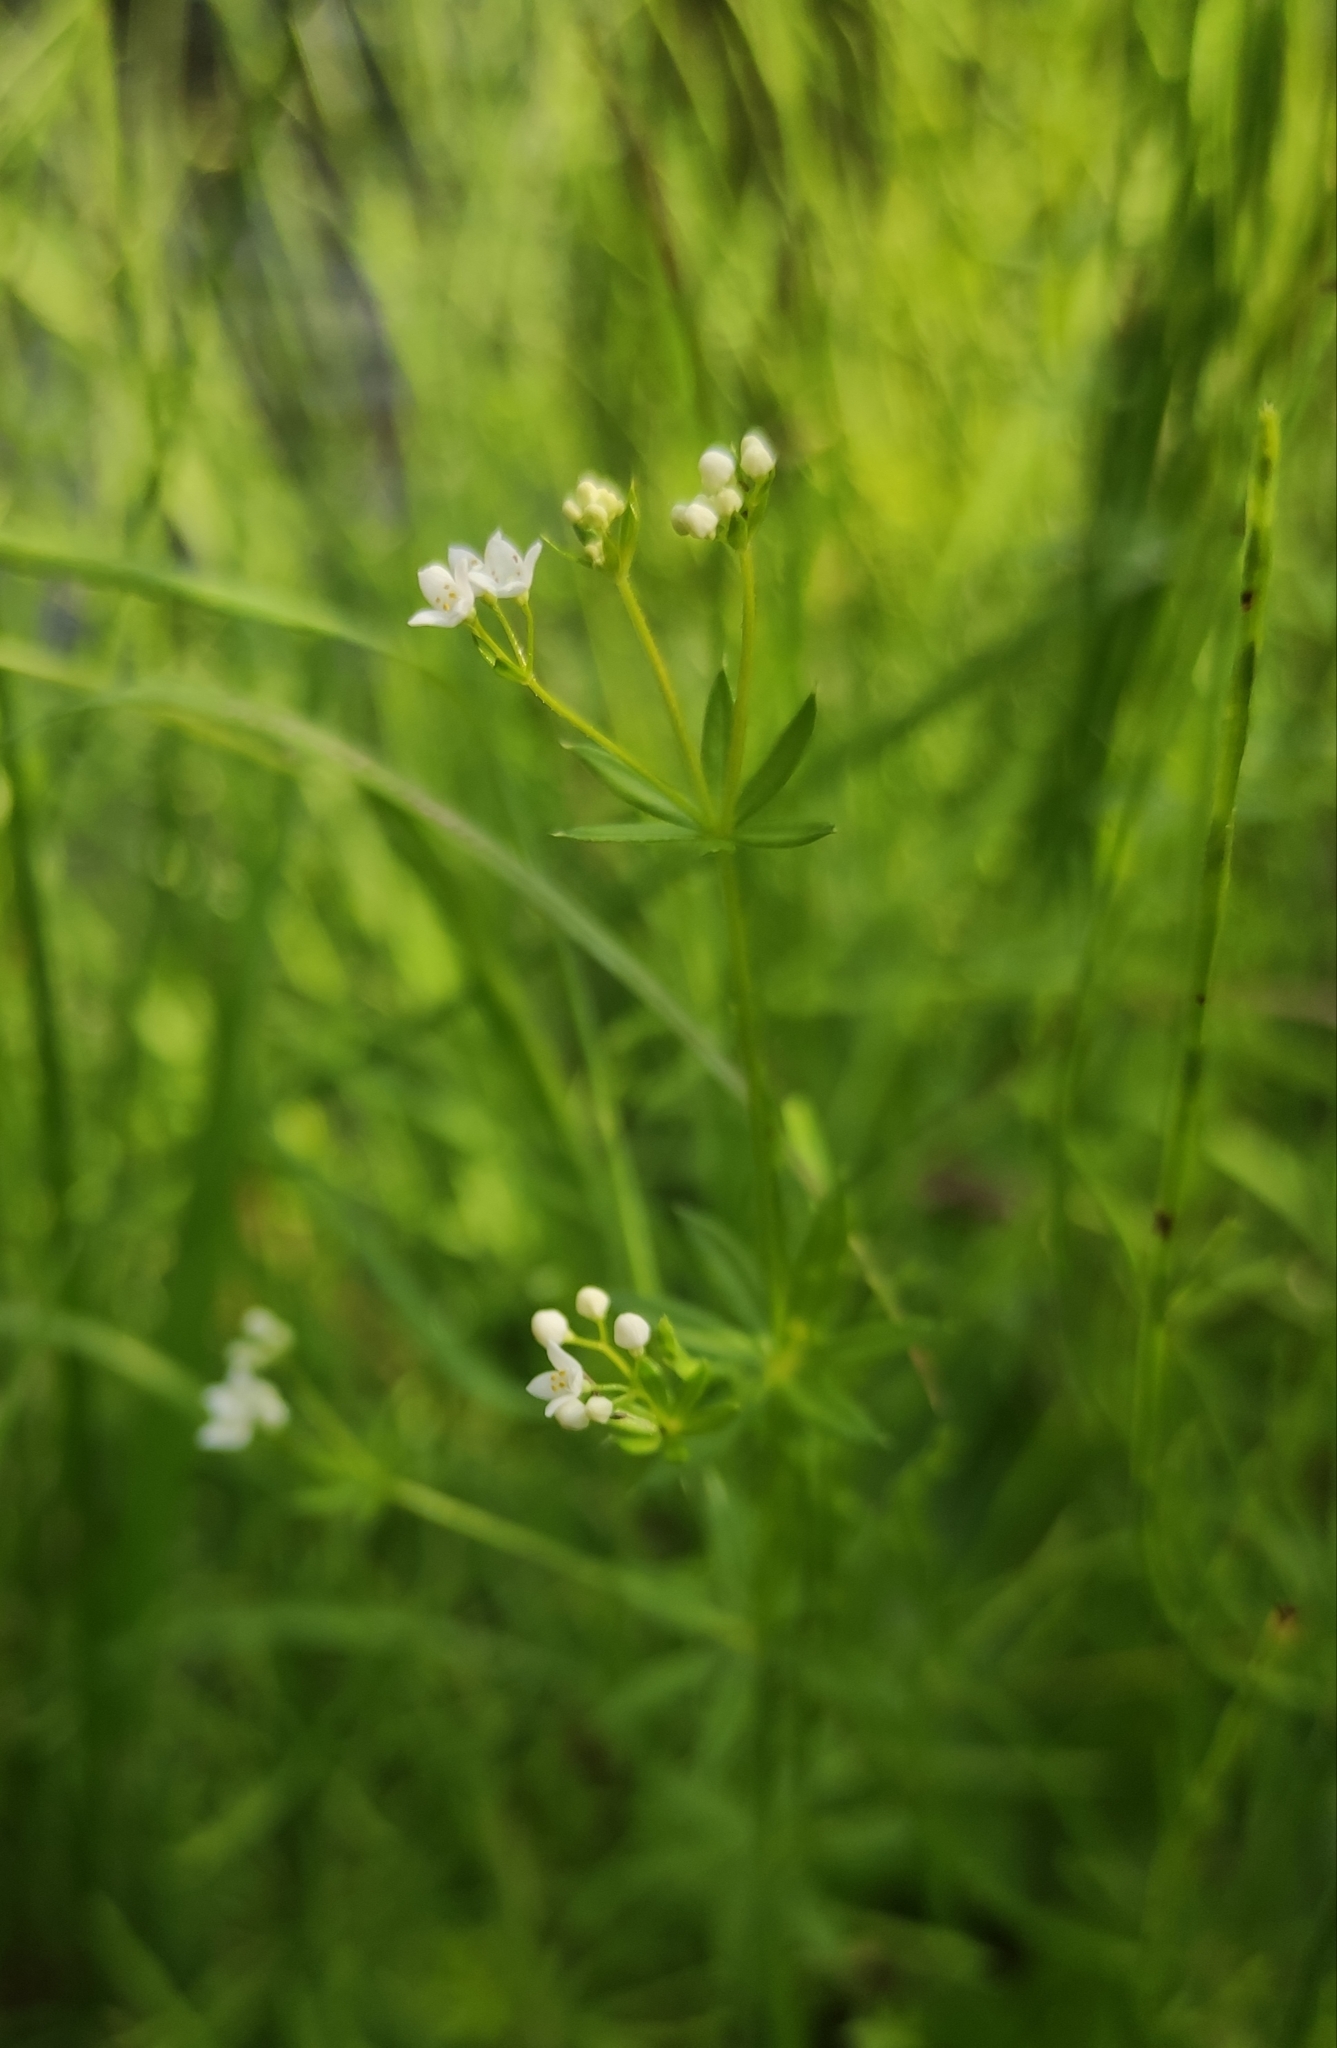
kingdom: Plantae
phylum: Tracheophyta
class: Magnoliopsida
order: Gentianales
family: Rubiaceae
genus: Galium
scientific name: Galium uliginosum
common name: Fen bedstraw
